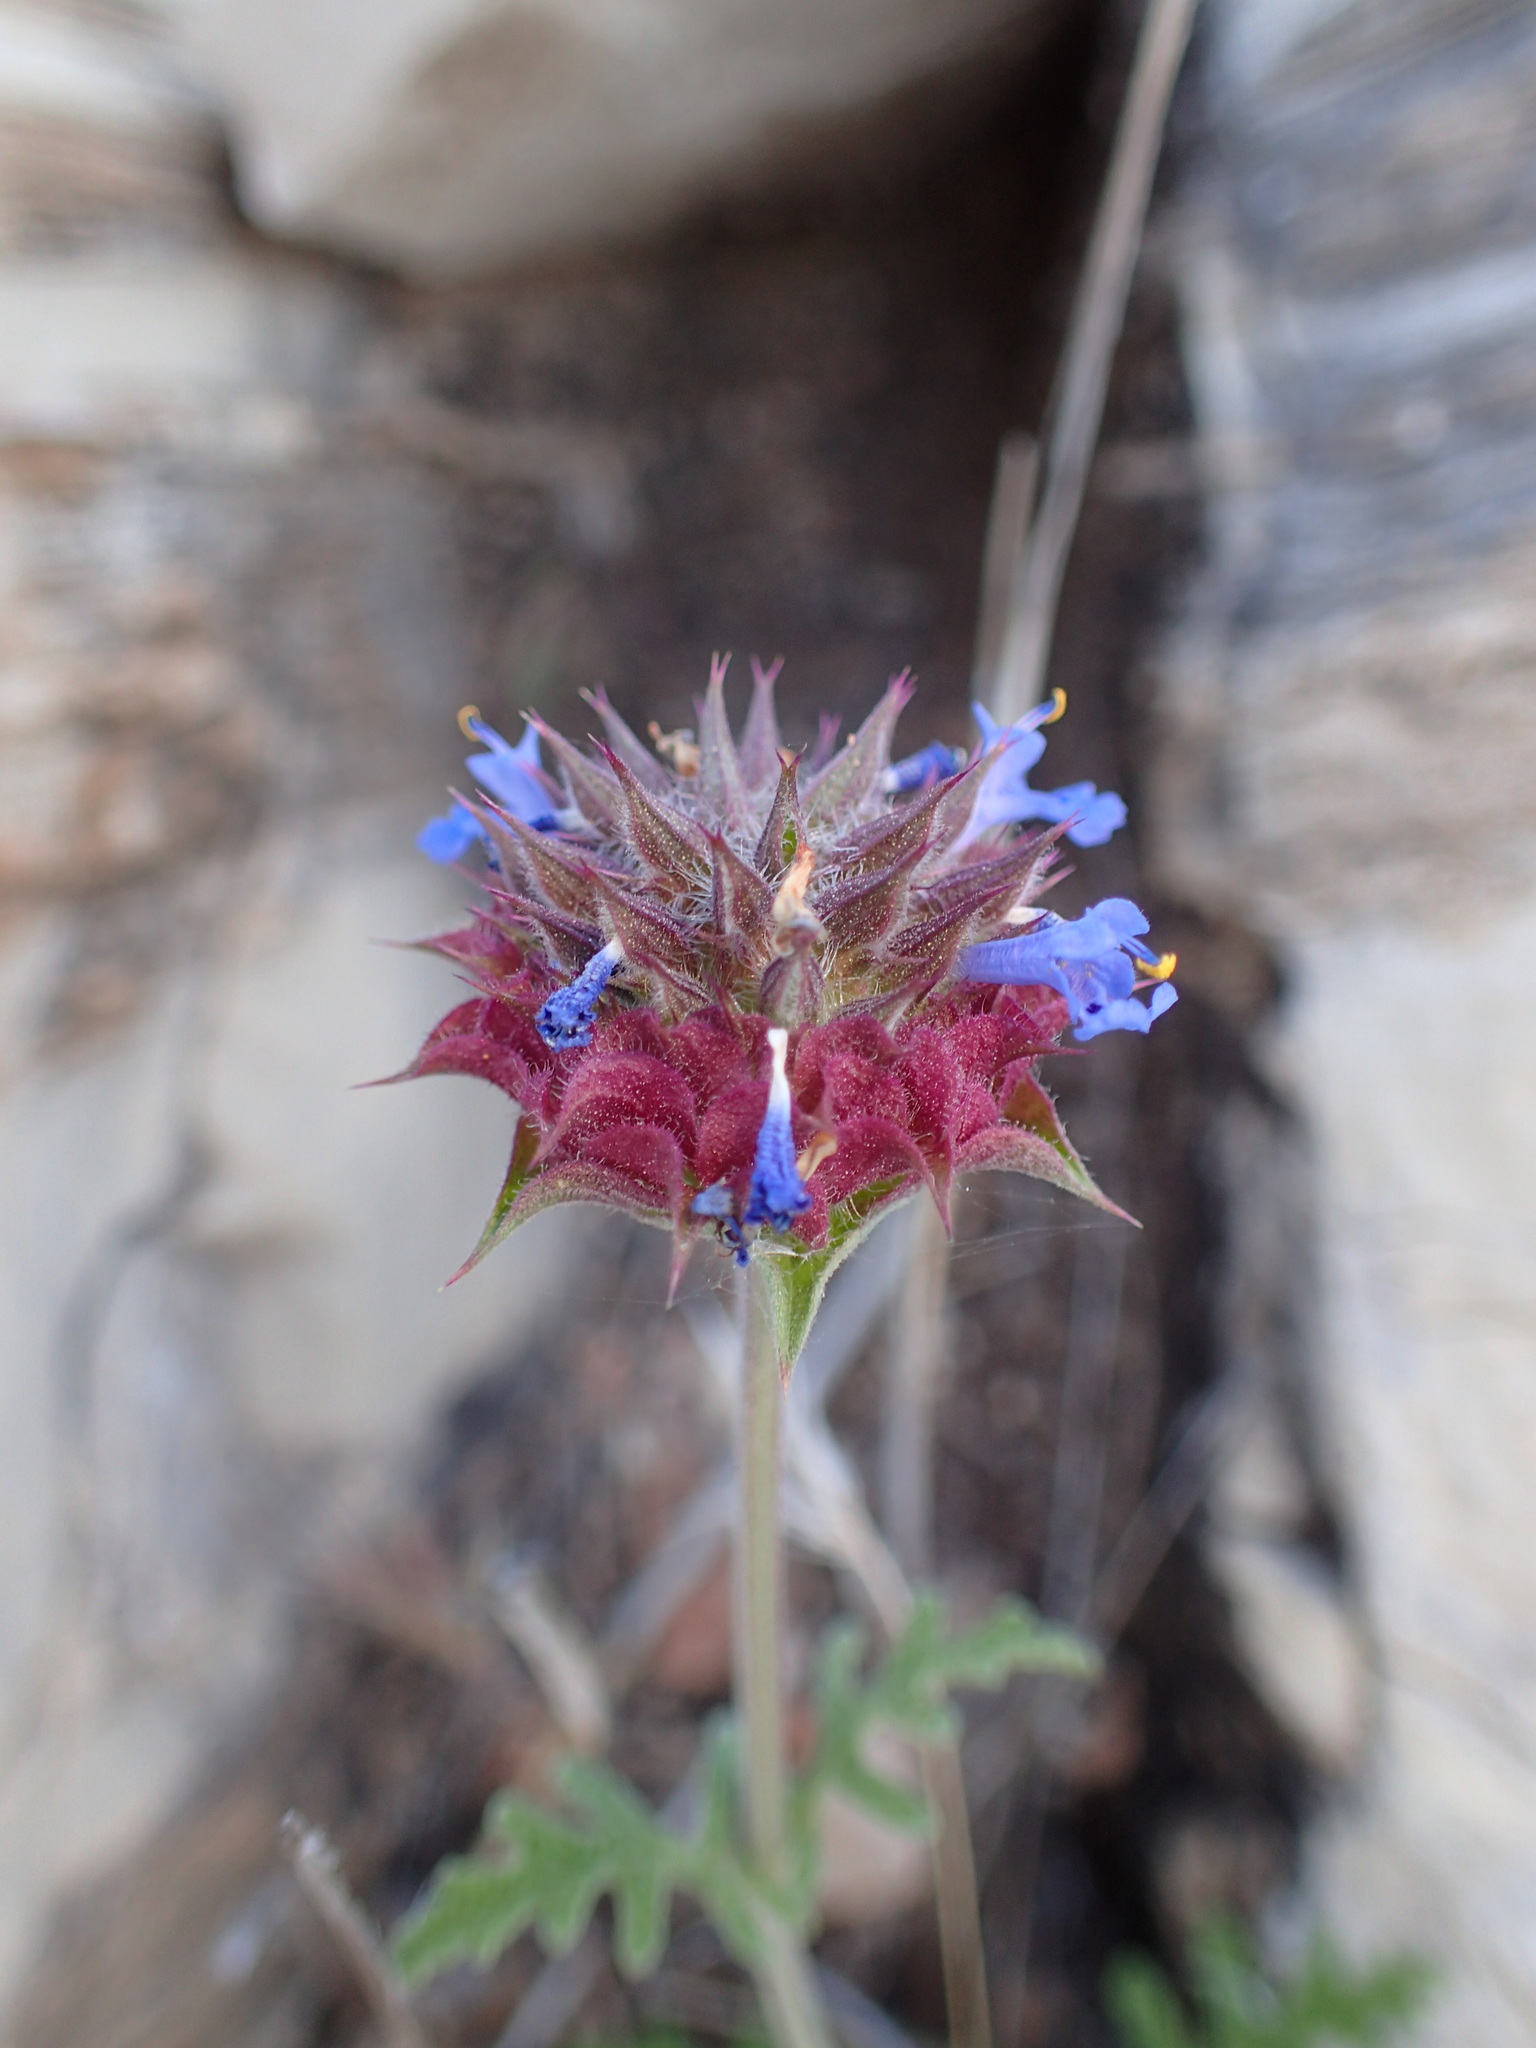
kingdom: Plantae
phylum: Tracheophyta
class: Magnoliopsida
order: Lamiales
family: Lamiaceae
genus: Salvia
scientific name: Salvia columbariae
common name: Chia
